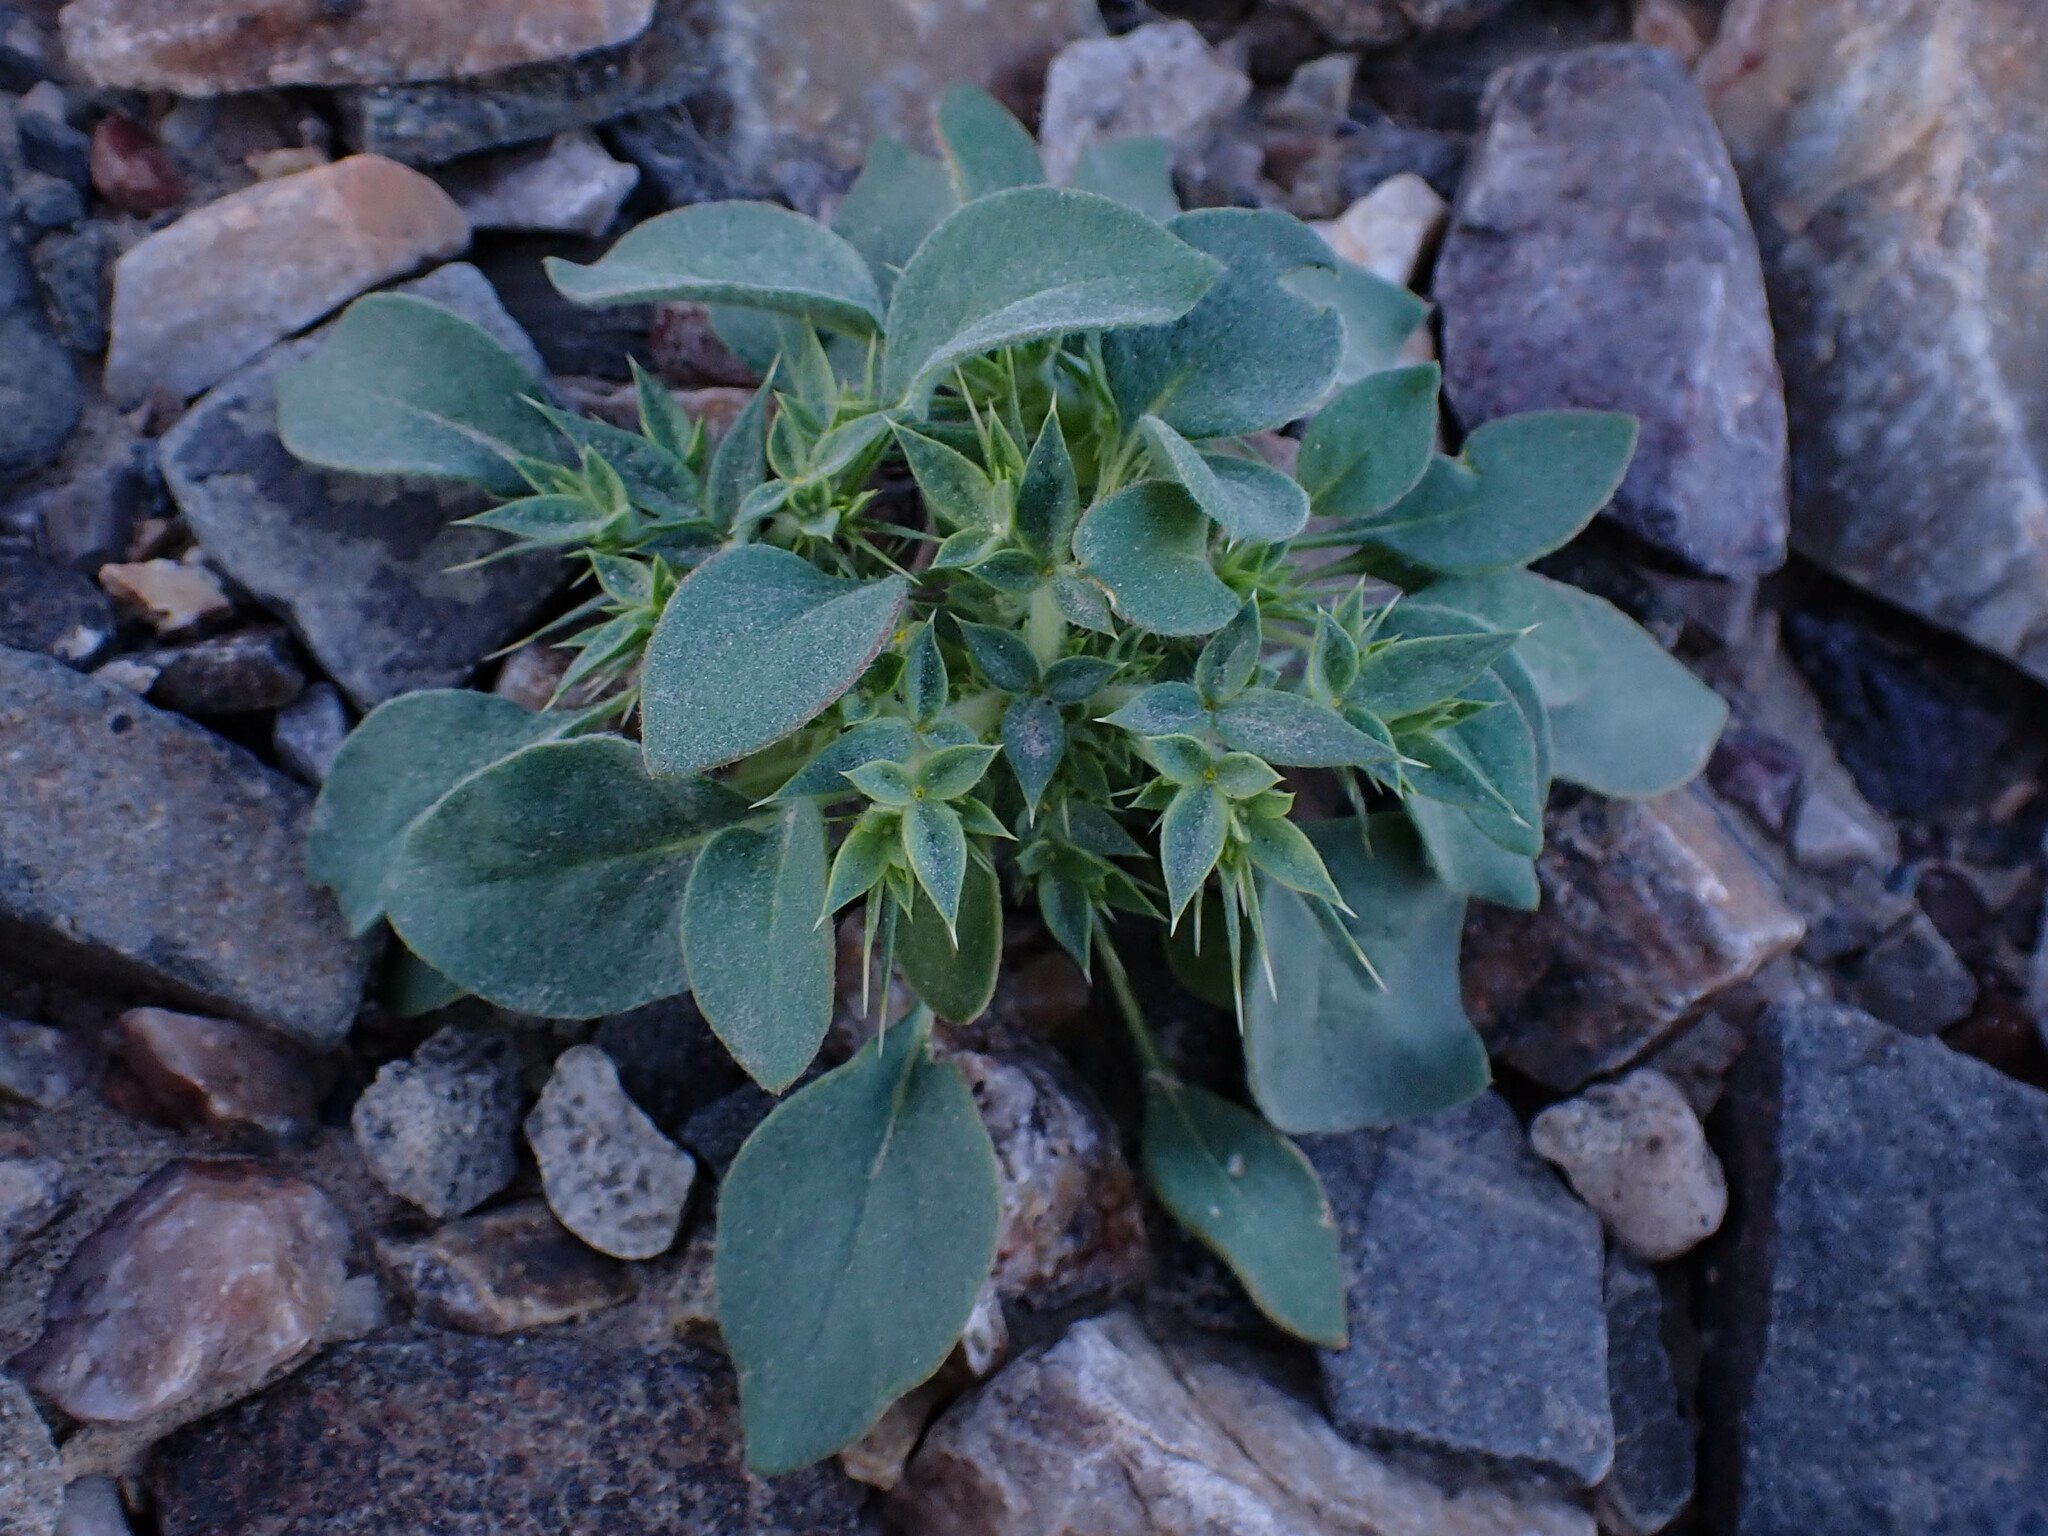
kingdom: Plantae
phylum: Tracheophyta
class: Magnoliopsida
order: Caryophyllales
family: Polygonaceae
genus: Chorizanthe
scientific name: Chorizanthe rigida
